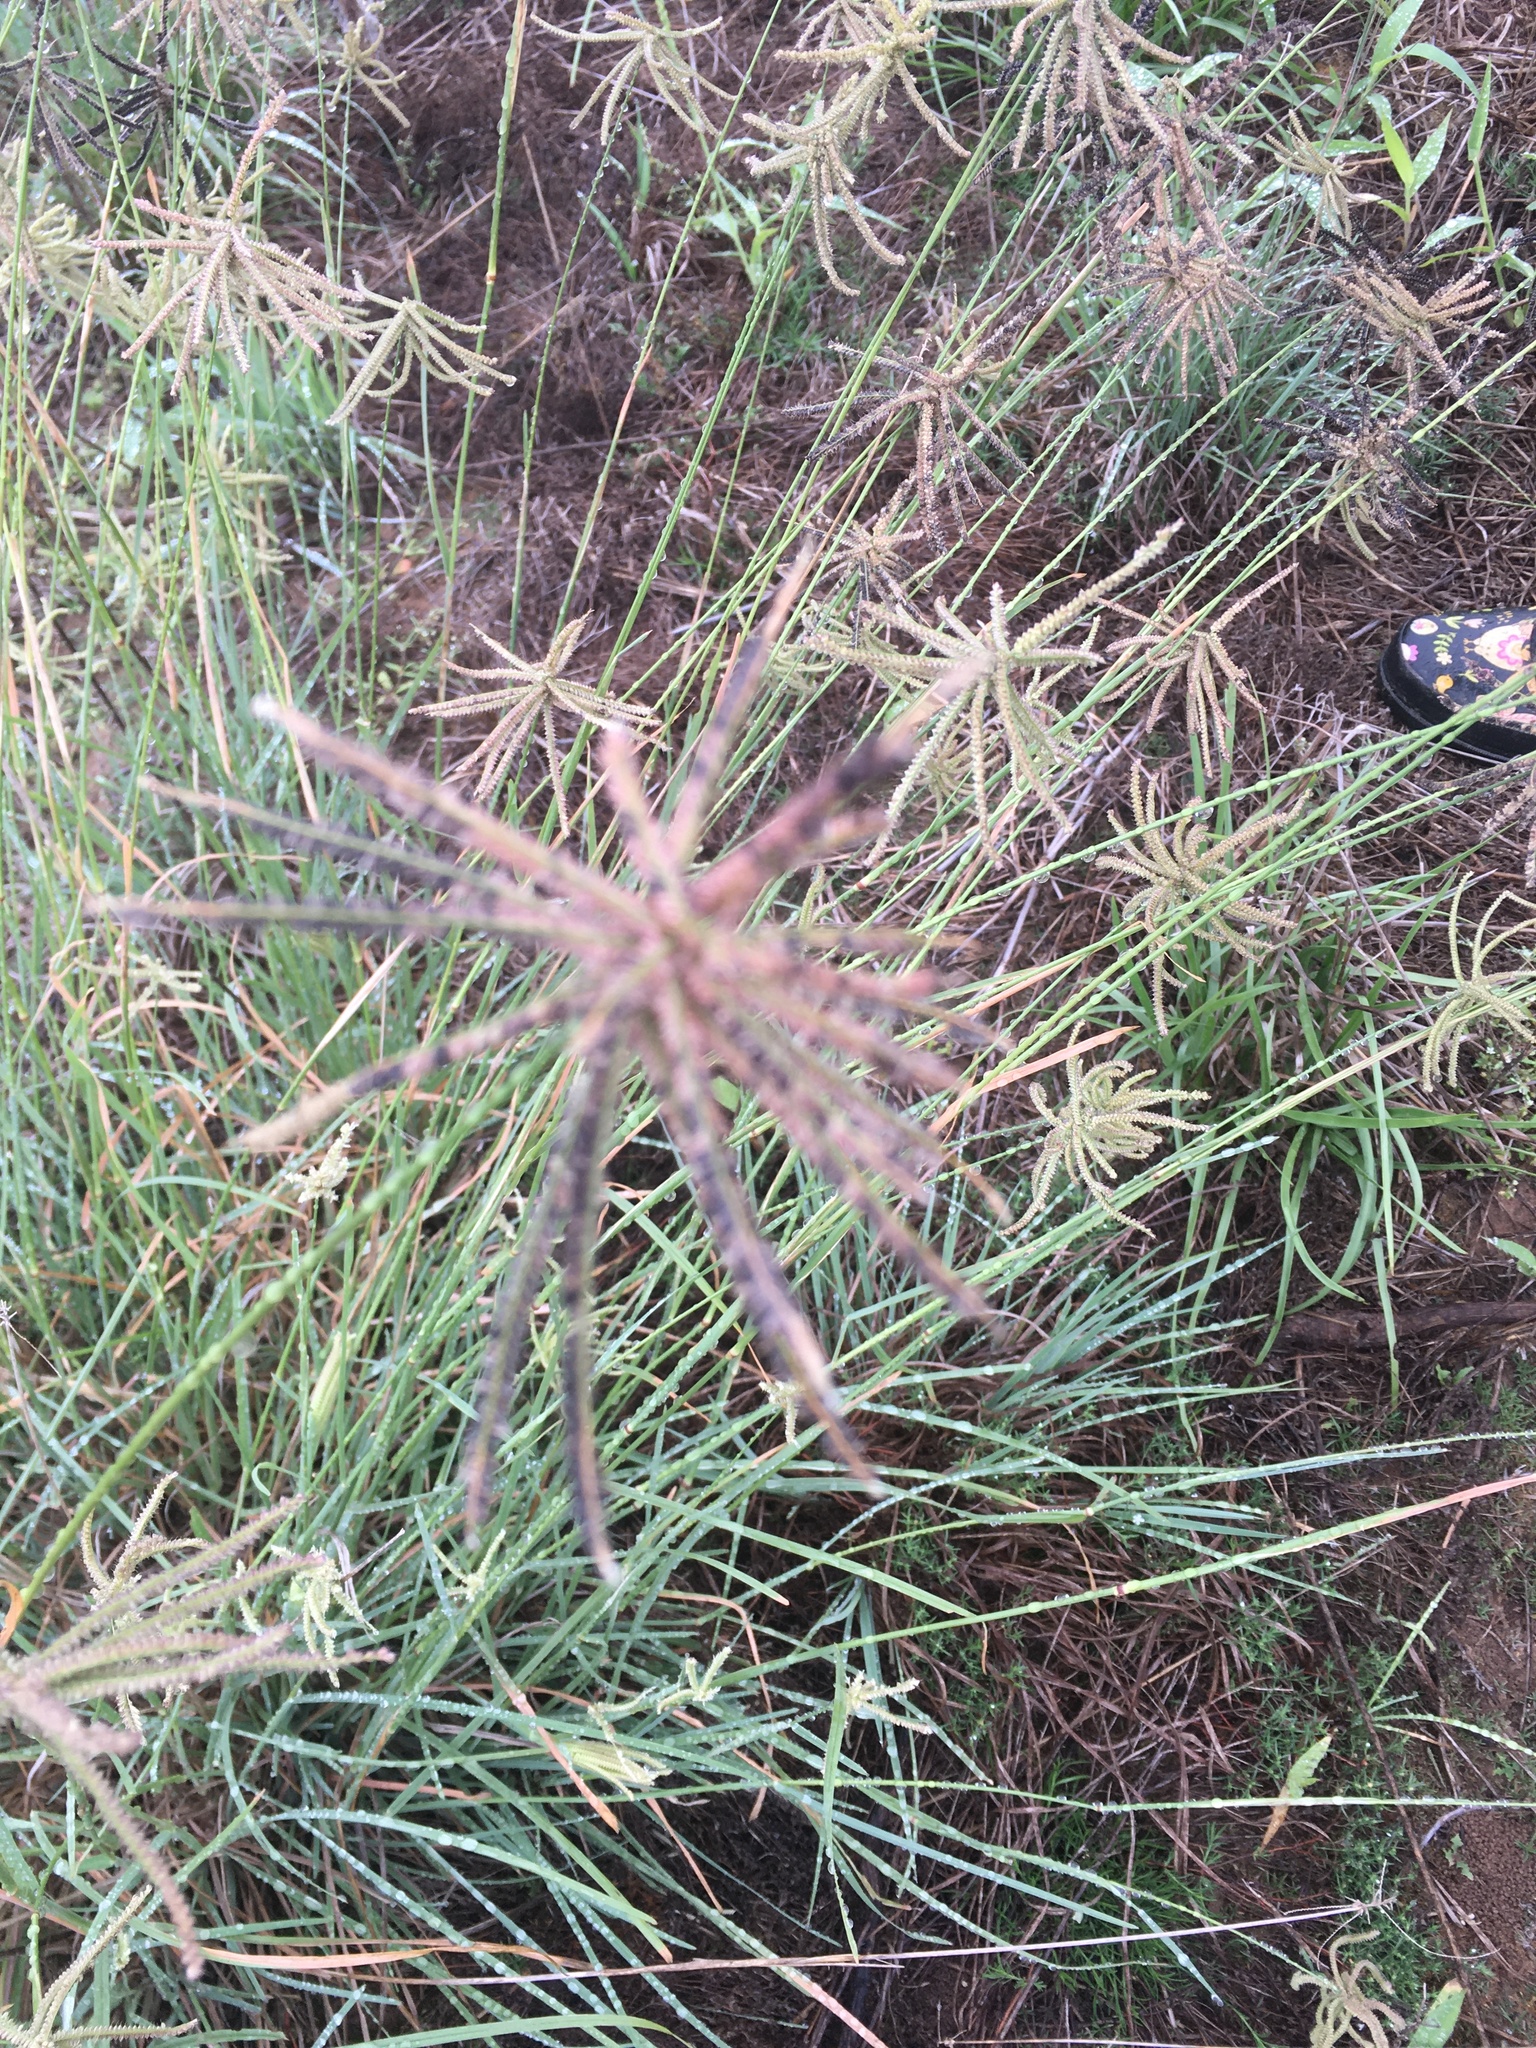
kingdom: Plantae
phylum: Tracheophyta
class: Liliopsida
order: Poales
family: Poaceae
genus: Chloris
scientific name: Chloris cucullata
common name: Hooded windmill grass
